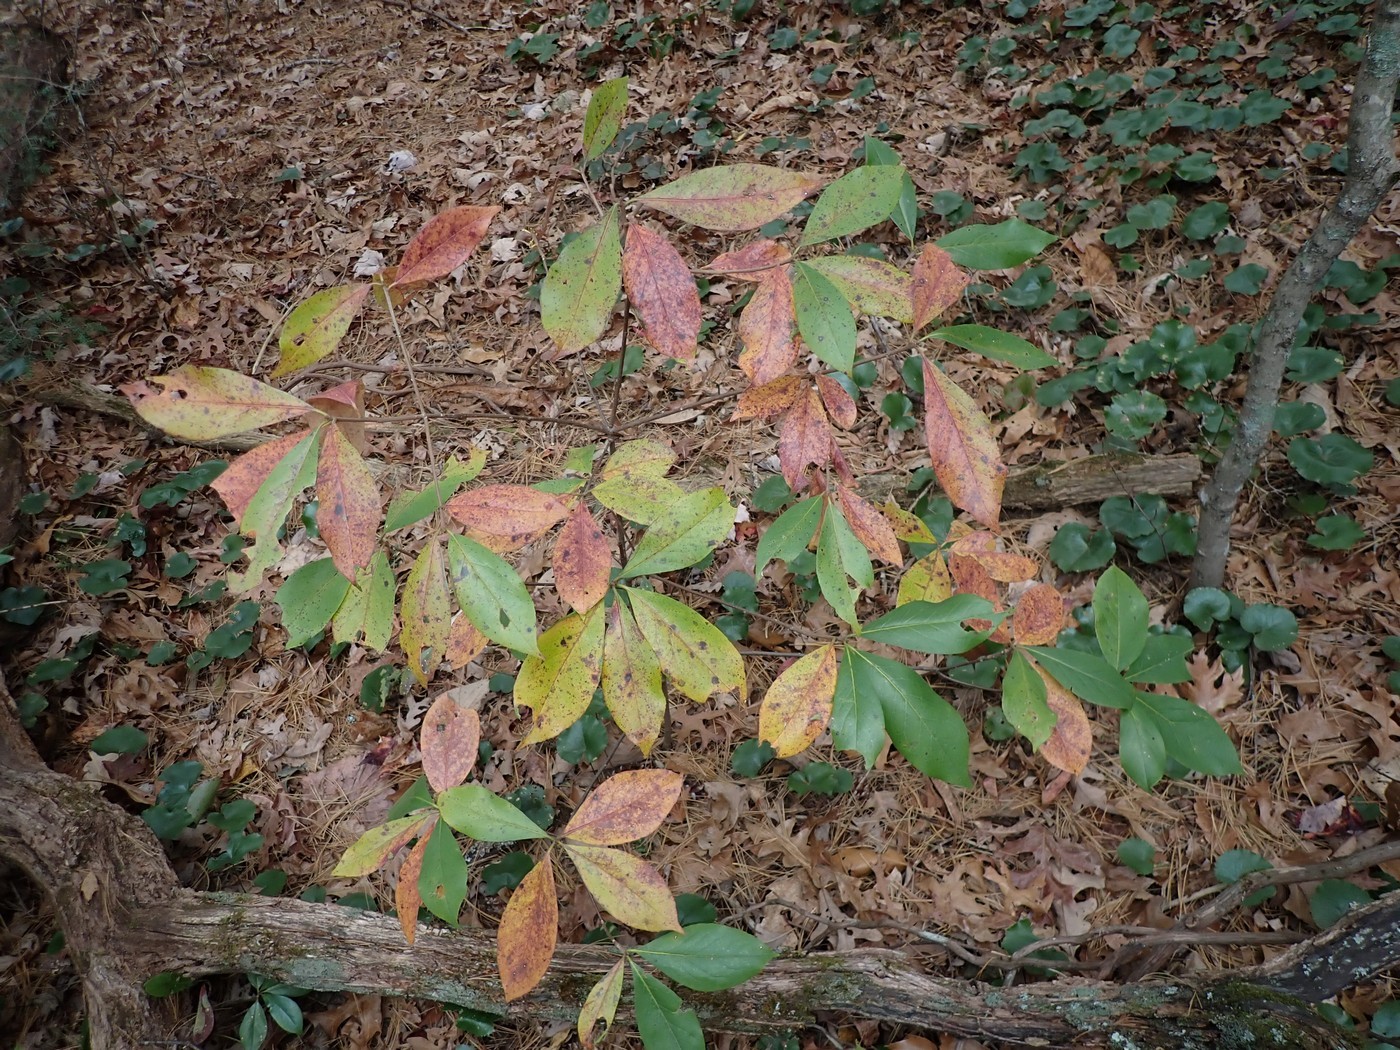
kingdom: Plantae
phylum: Tracheophyta
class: Magnoliopsida
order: Ericales
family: Symplocaceae
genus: Symplocos
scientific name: Symplocos tinctoria
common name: Horse-sugar
